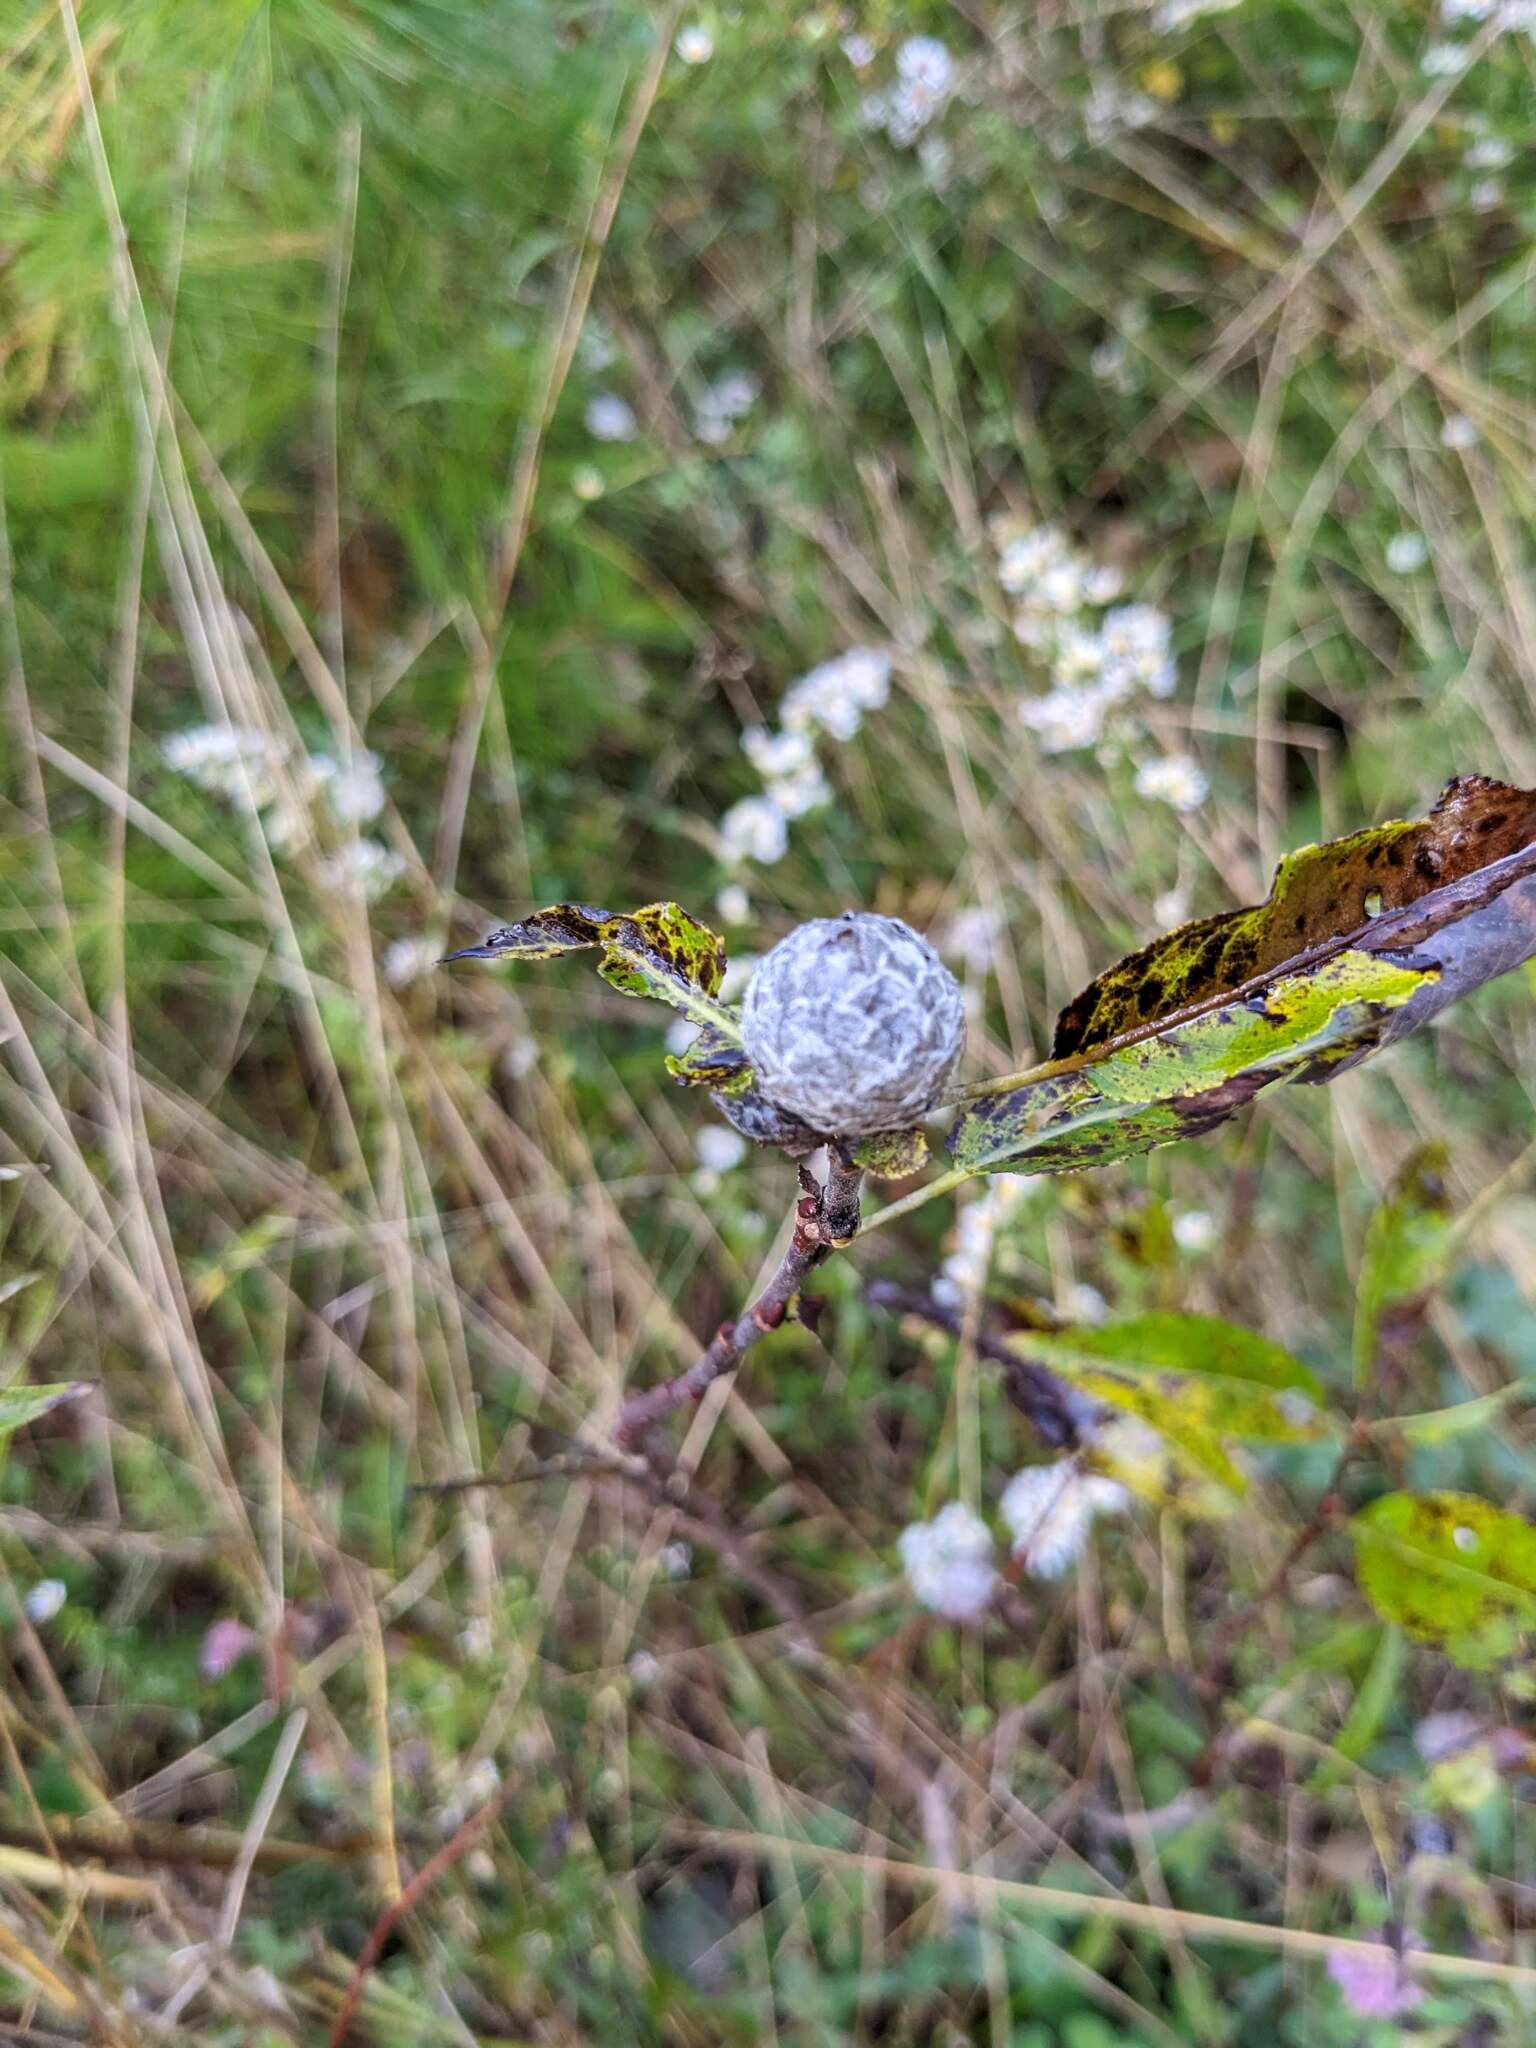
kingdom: Animalia
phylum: Arthropoda
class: Insecta
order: Diptera
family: Cecidomyiidae
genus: Rabdophaga
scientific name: Rabdophaga strobiloides
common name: Willow pinecone gall midge
